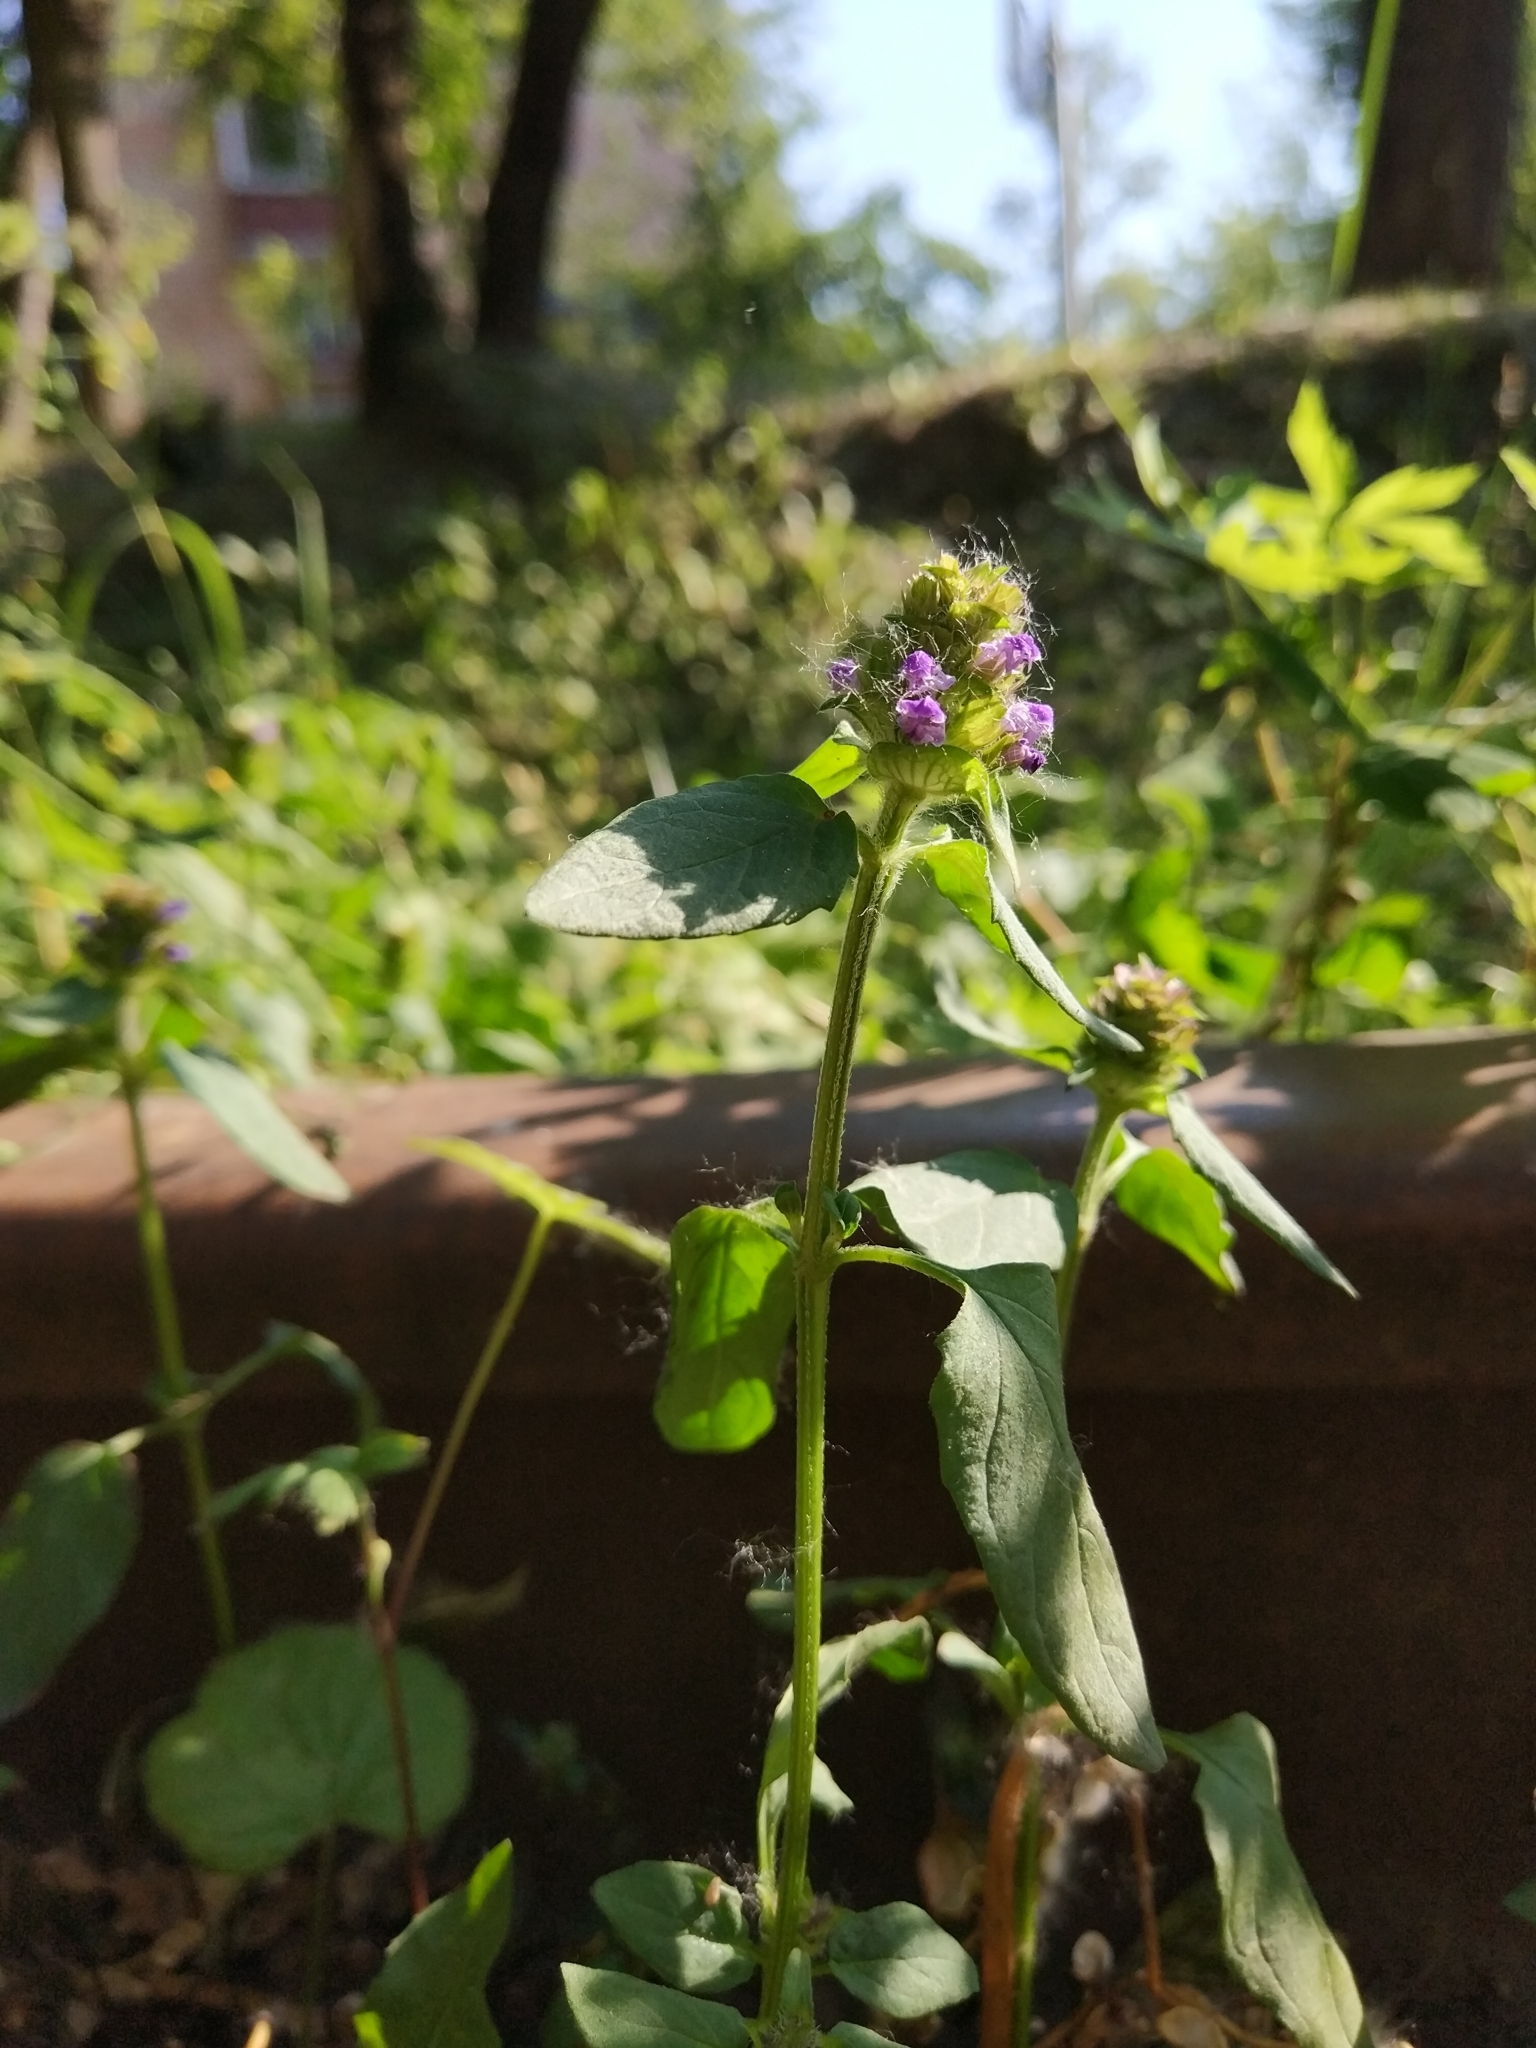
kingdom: Plantae
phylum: Tracheophyta
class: Magnoliopsida
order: Lamiales
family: Lamiaceae
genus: Prunella
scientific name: Prunella vulgaris
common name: Heal-all
